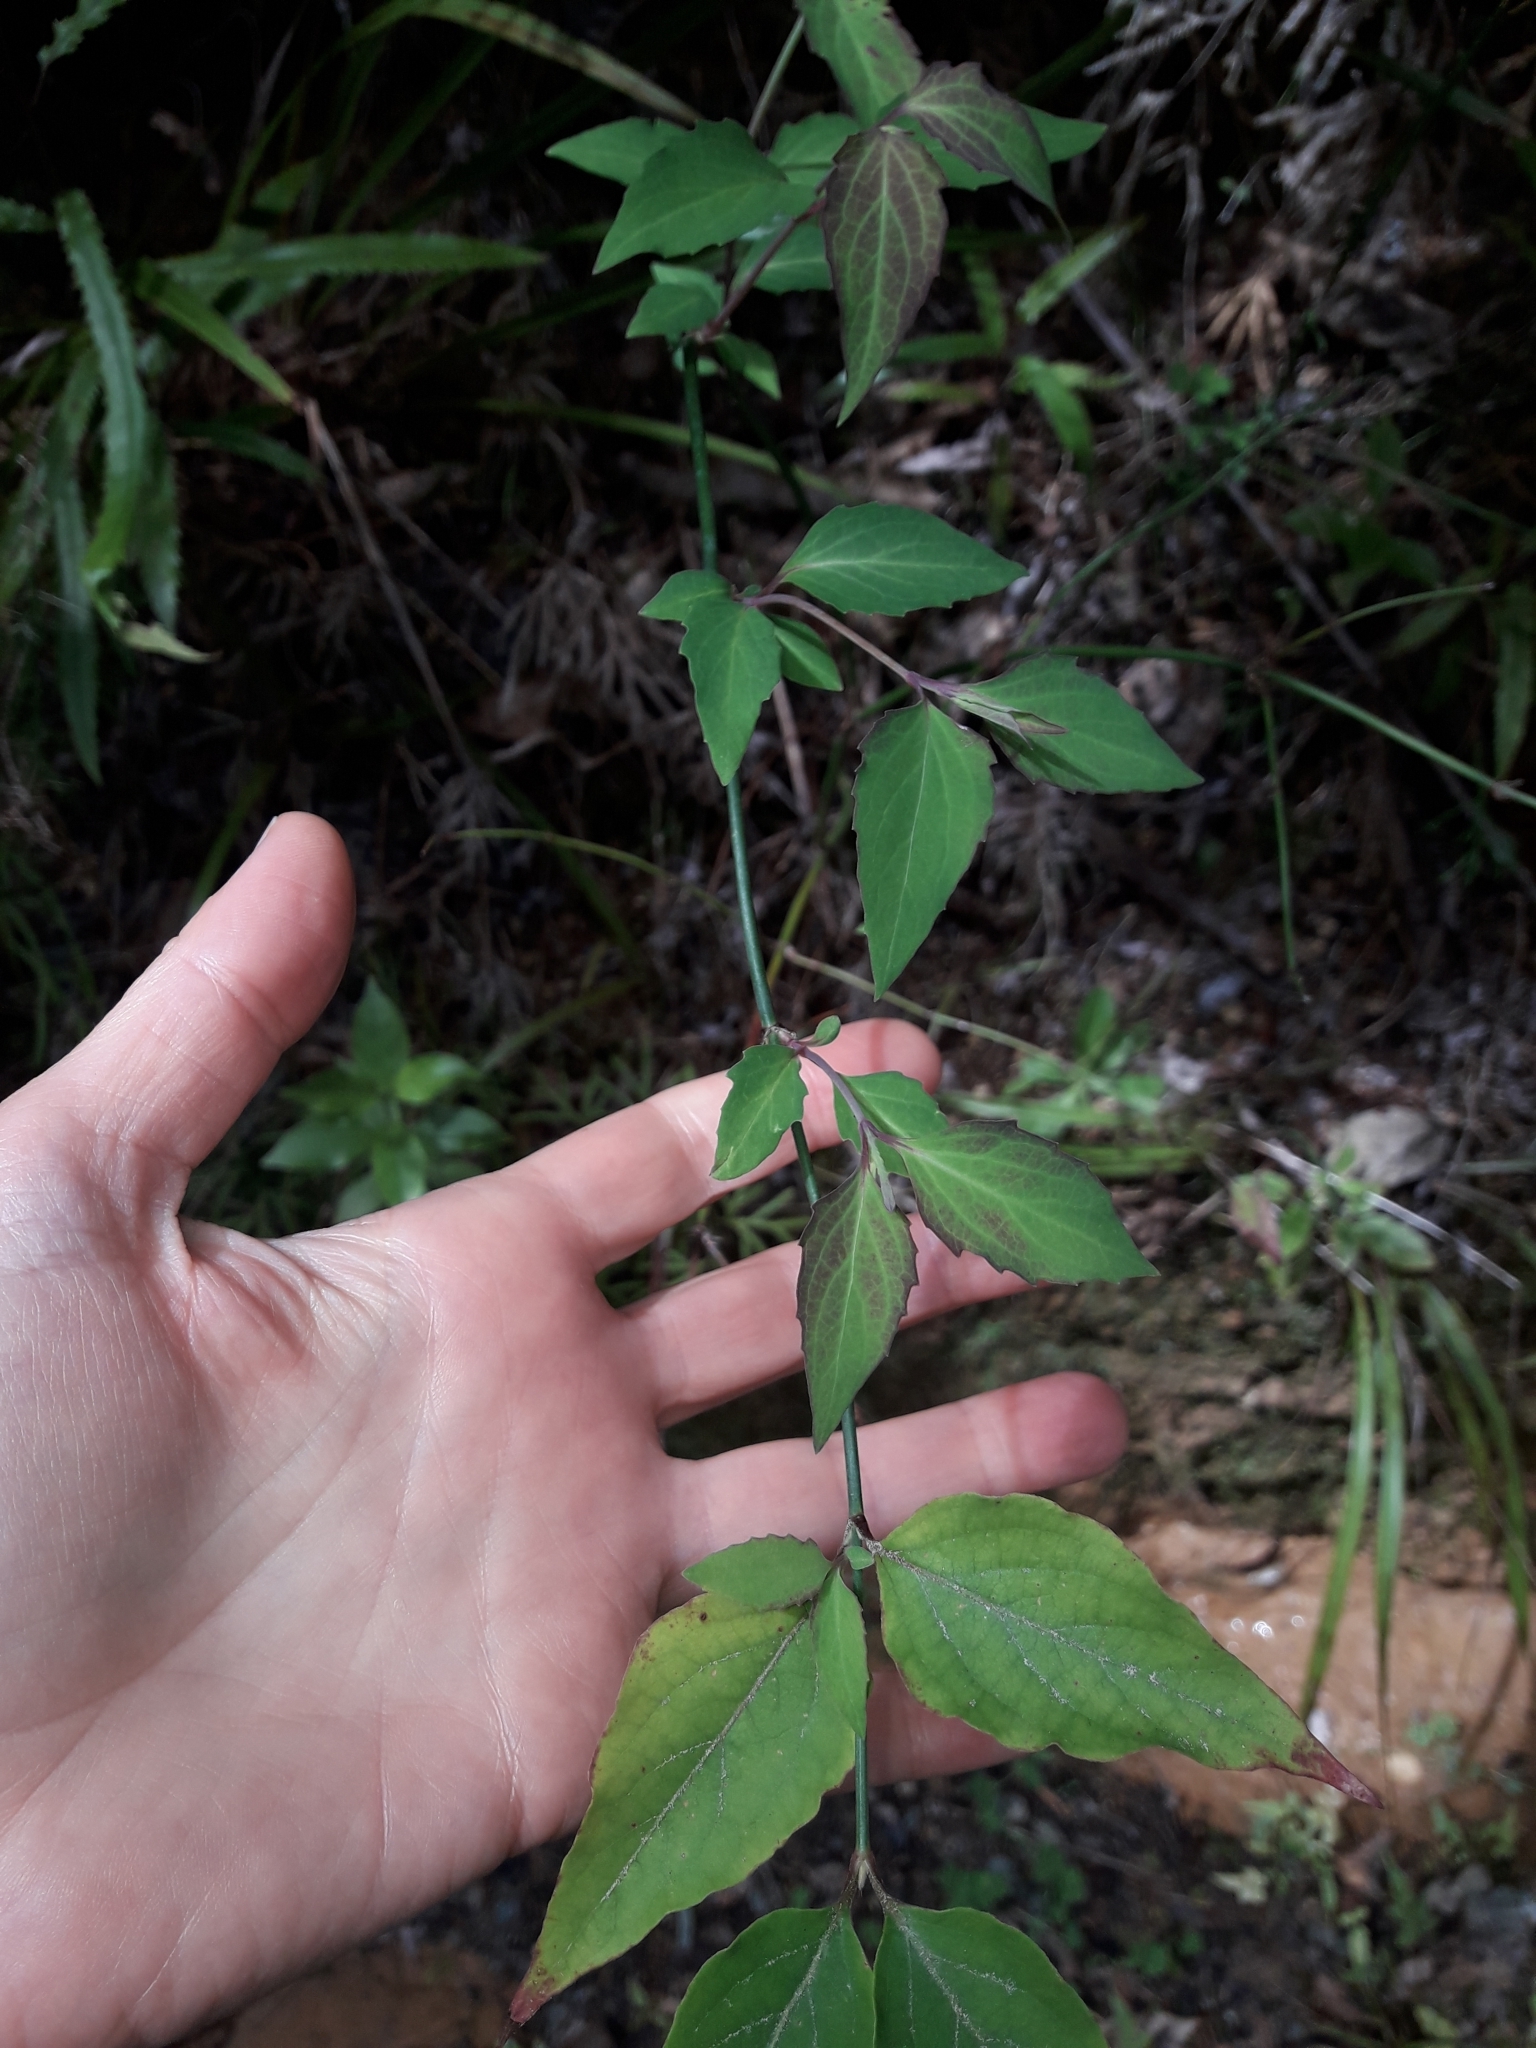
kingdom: Plantae
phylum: Tracheophyta
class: Magnoliopsida
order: Dipsacales
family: Caprifoliaceae
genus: Leycesteria
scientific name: Leycesteria formosa
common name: Himalayan honeysuckle
